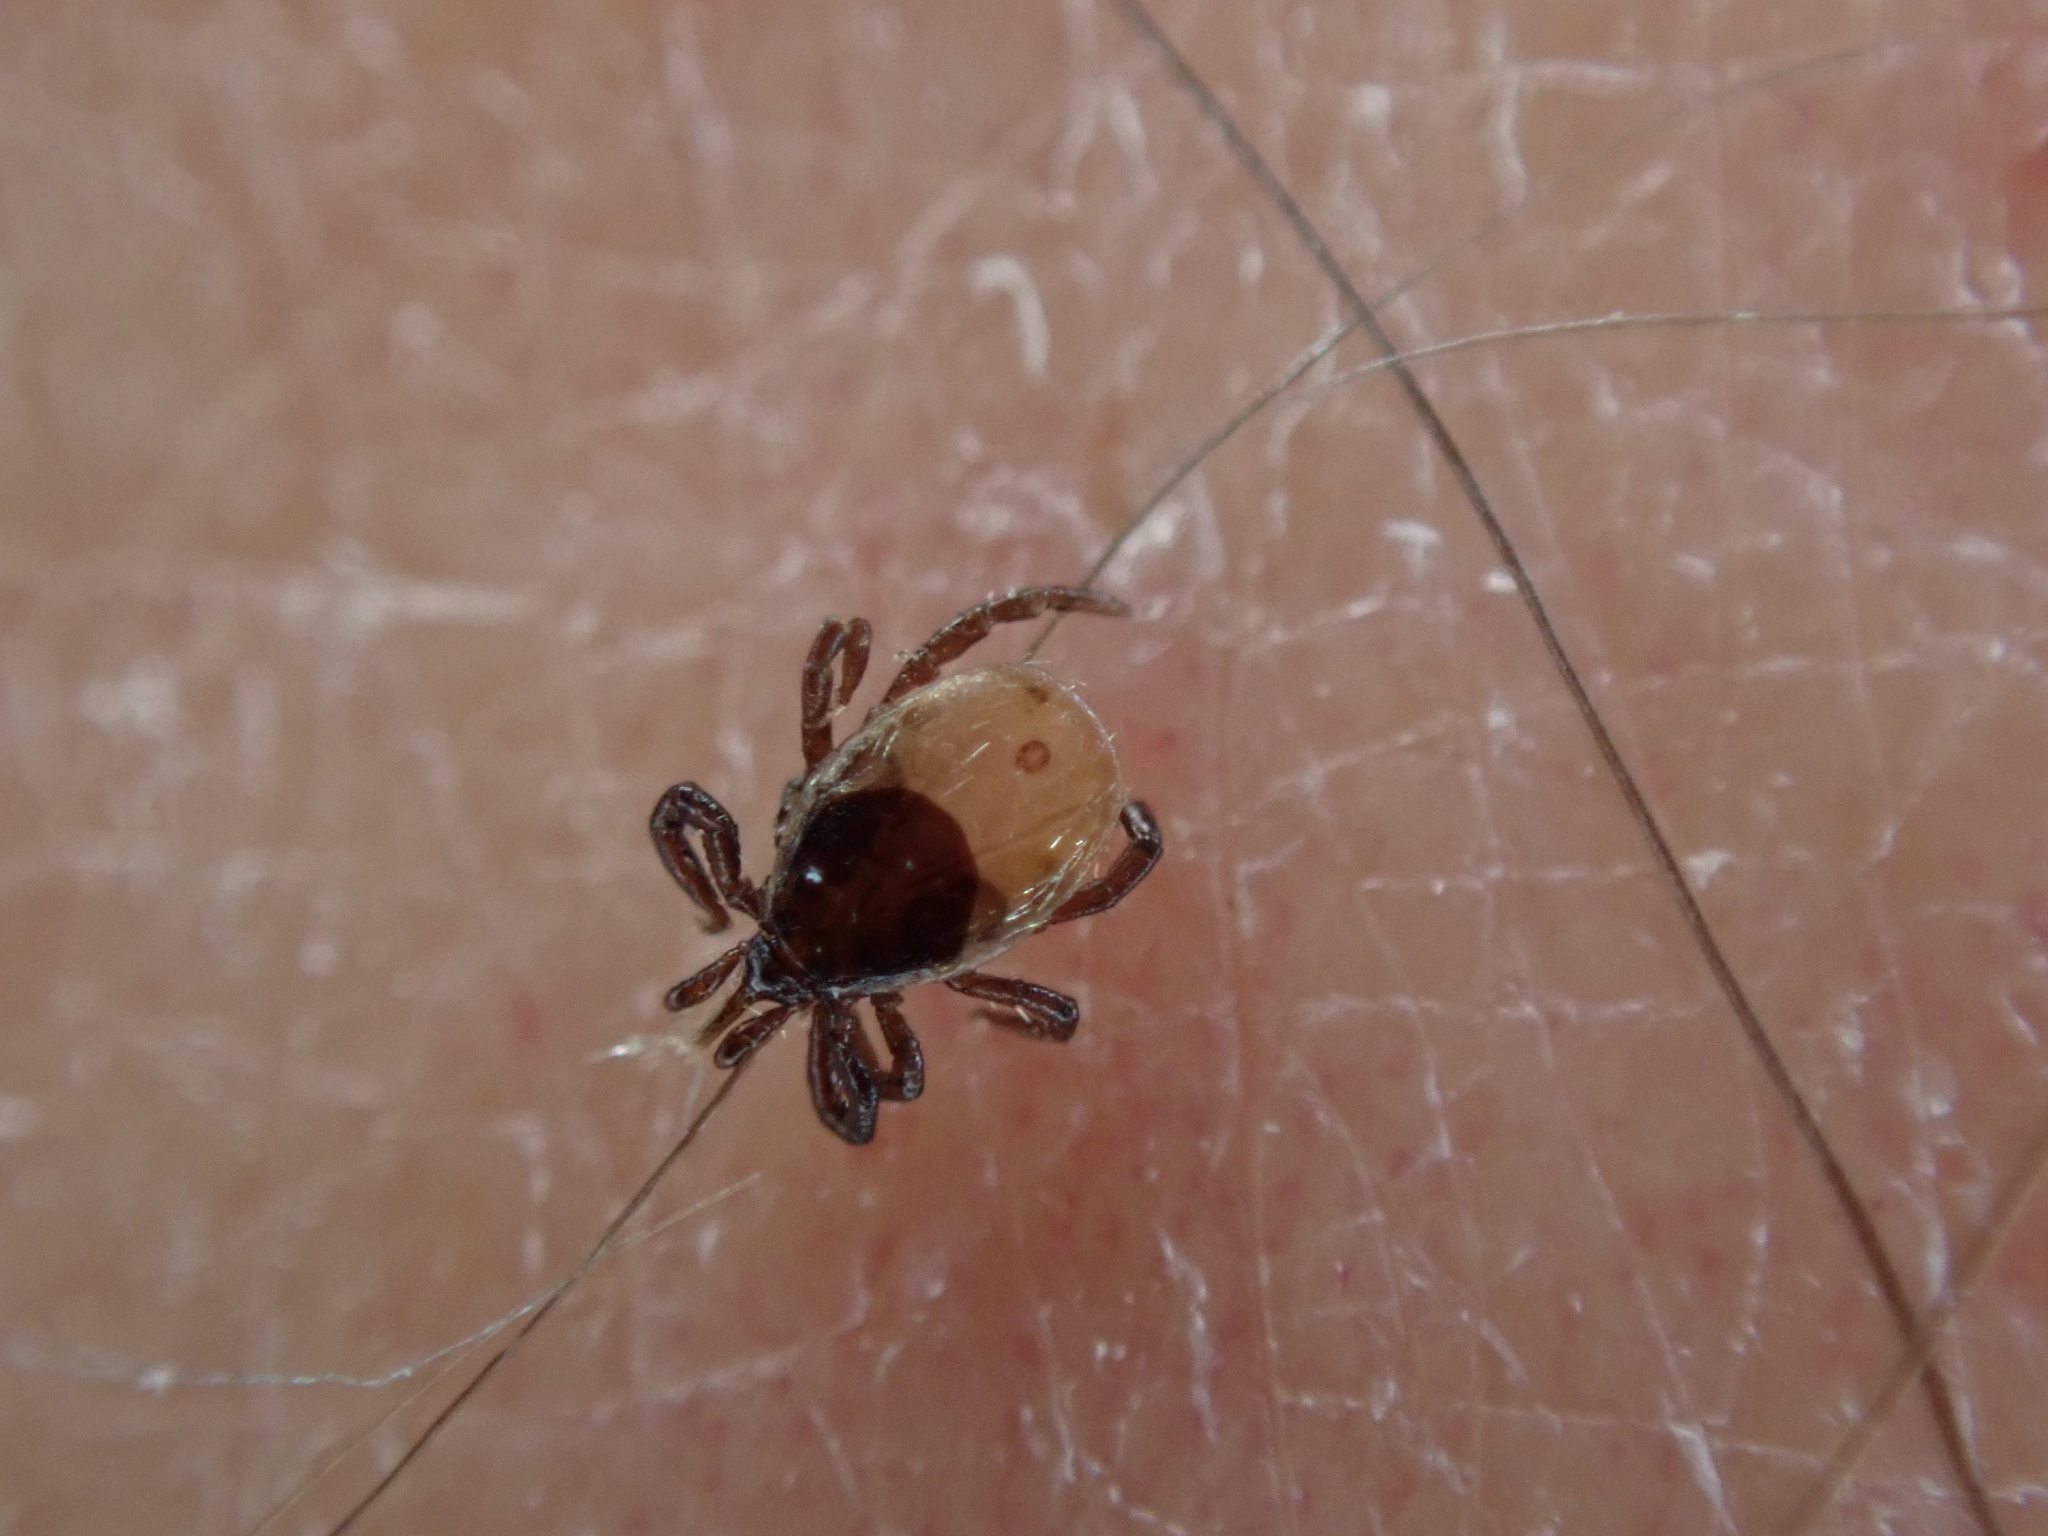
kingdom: Animalia
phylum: Arthropoda
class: Arachnida
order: Ixodida
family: Ixodidae
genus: Ixodes
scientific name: Ixodes ricinus
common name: Castor bean tick
